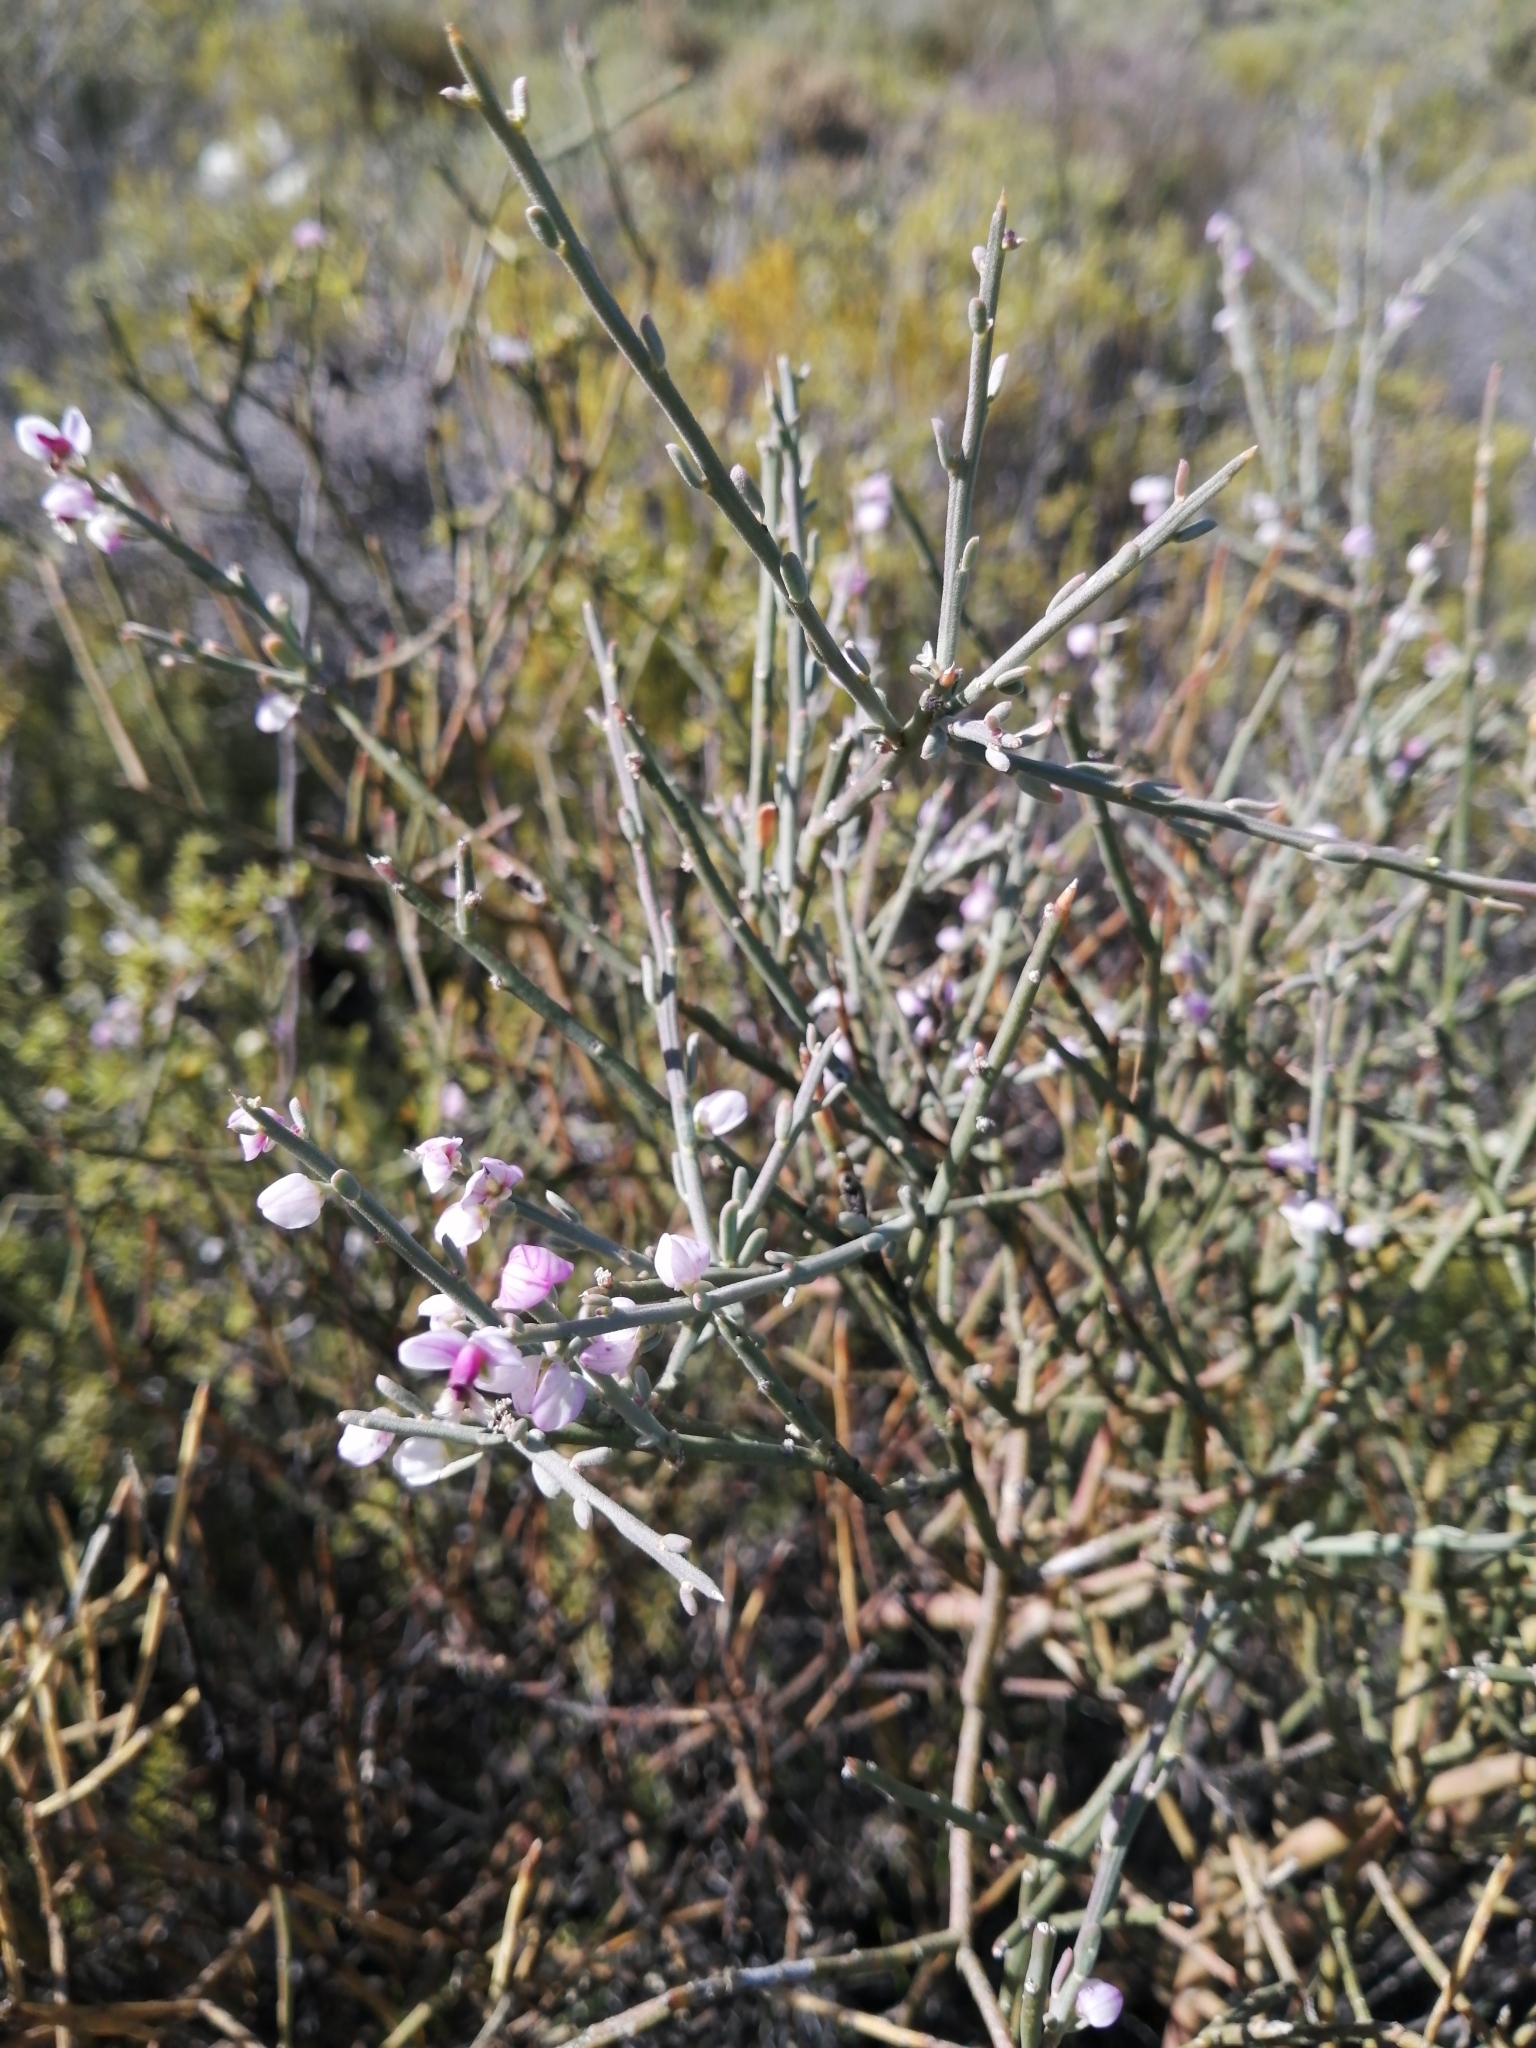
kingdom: Plantae
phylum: Tracheophyta
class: Magnoliopsida
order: Fabales
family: Polygalaceae
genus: Muraltia
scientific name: Muraltia spinosa
